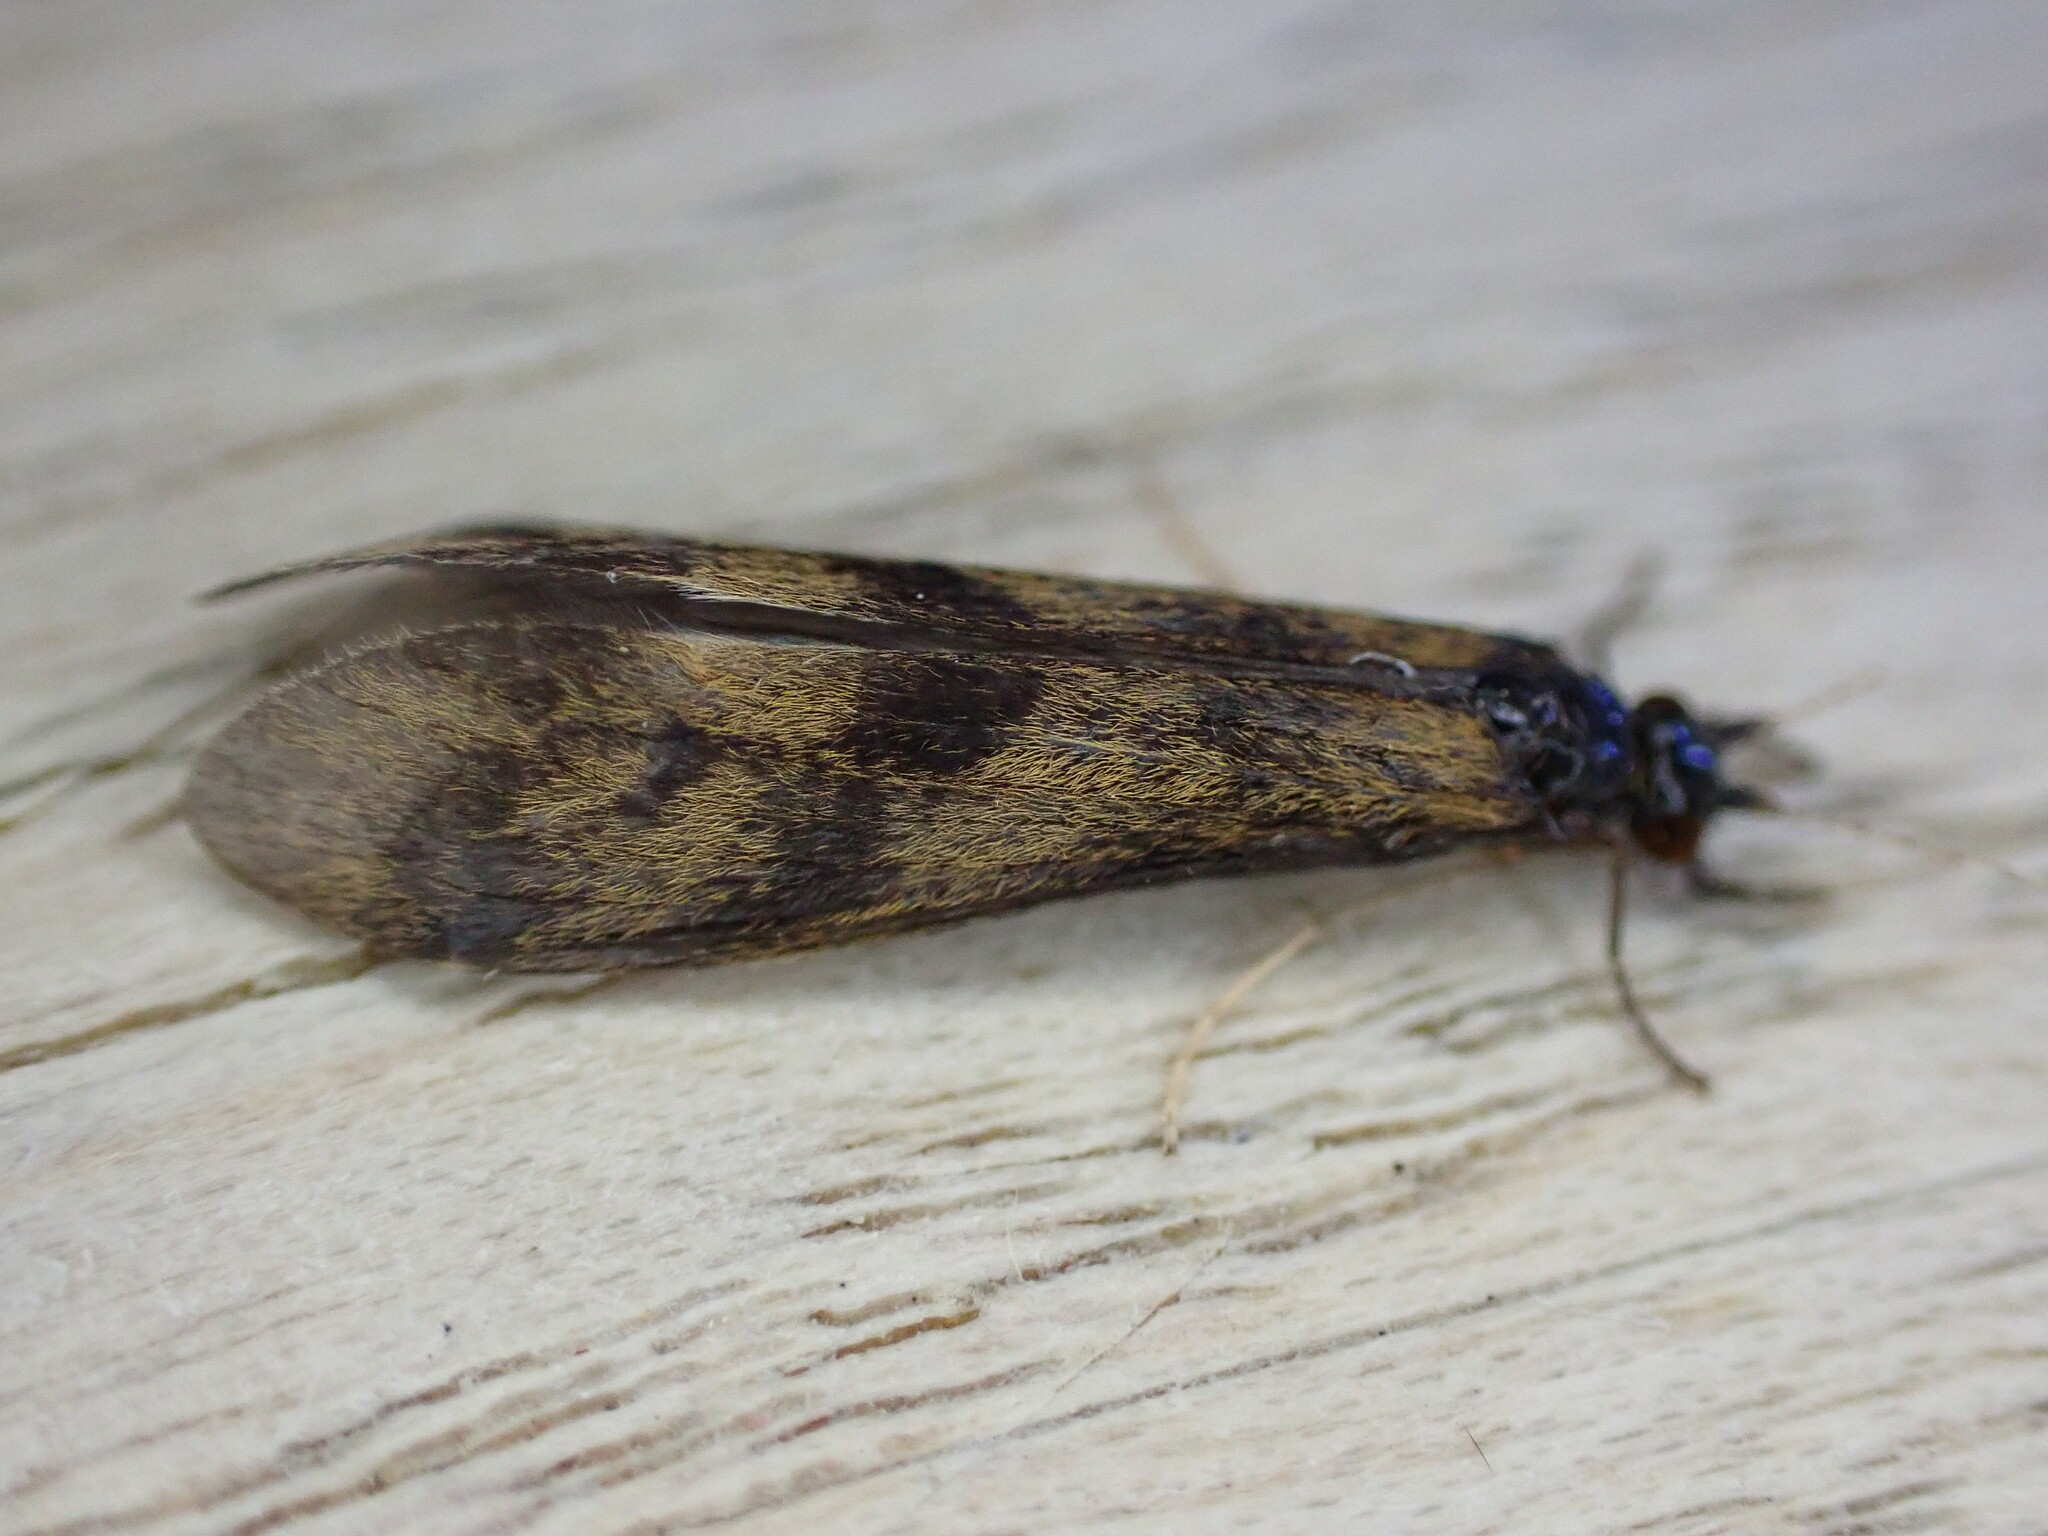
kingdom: Animalia
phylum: Arthropoda
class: Insecta
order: Trichoptera
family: Leptoceridae
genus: Mystacides
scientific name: Mystacides longicornis
